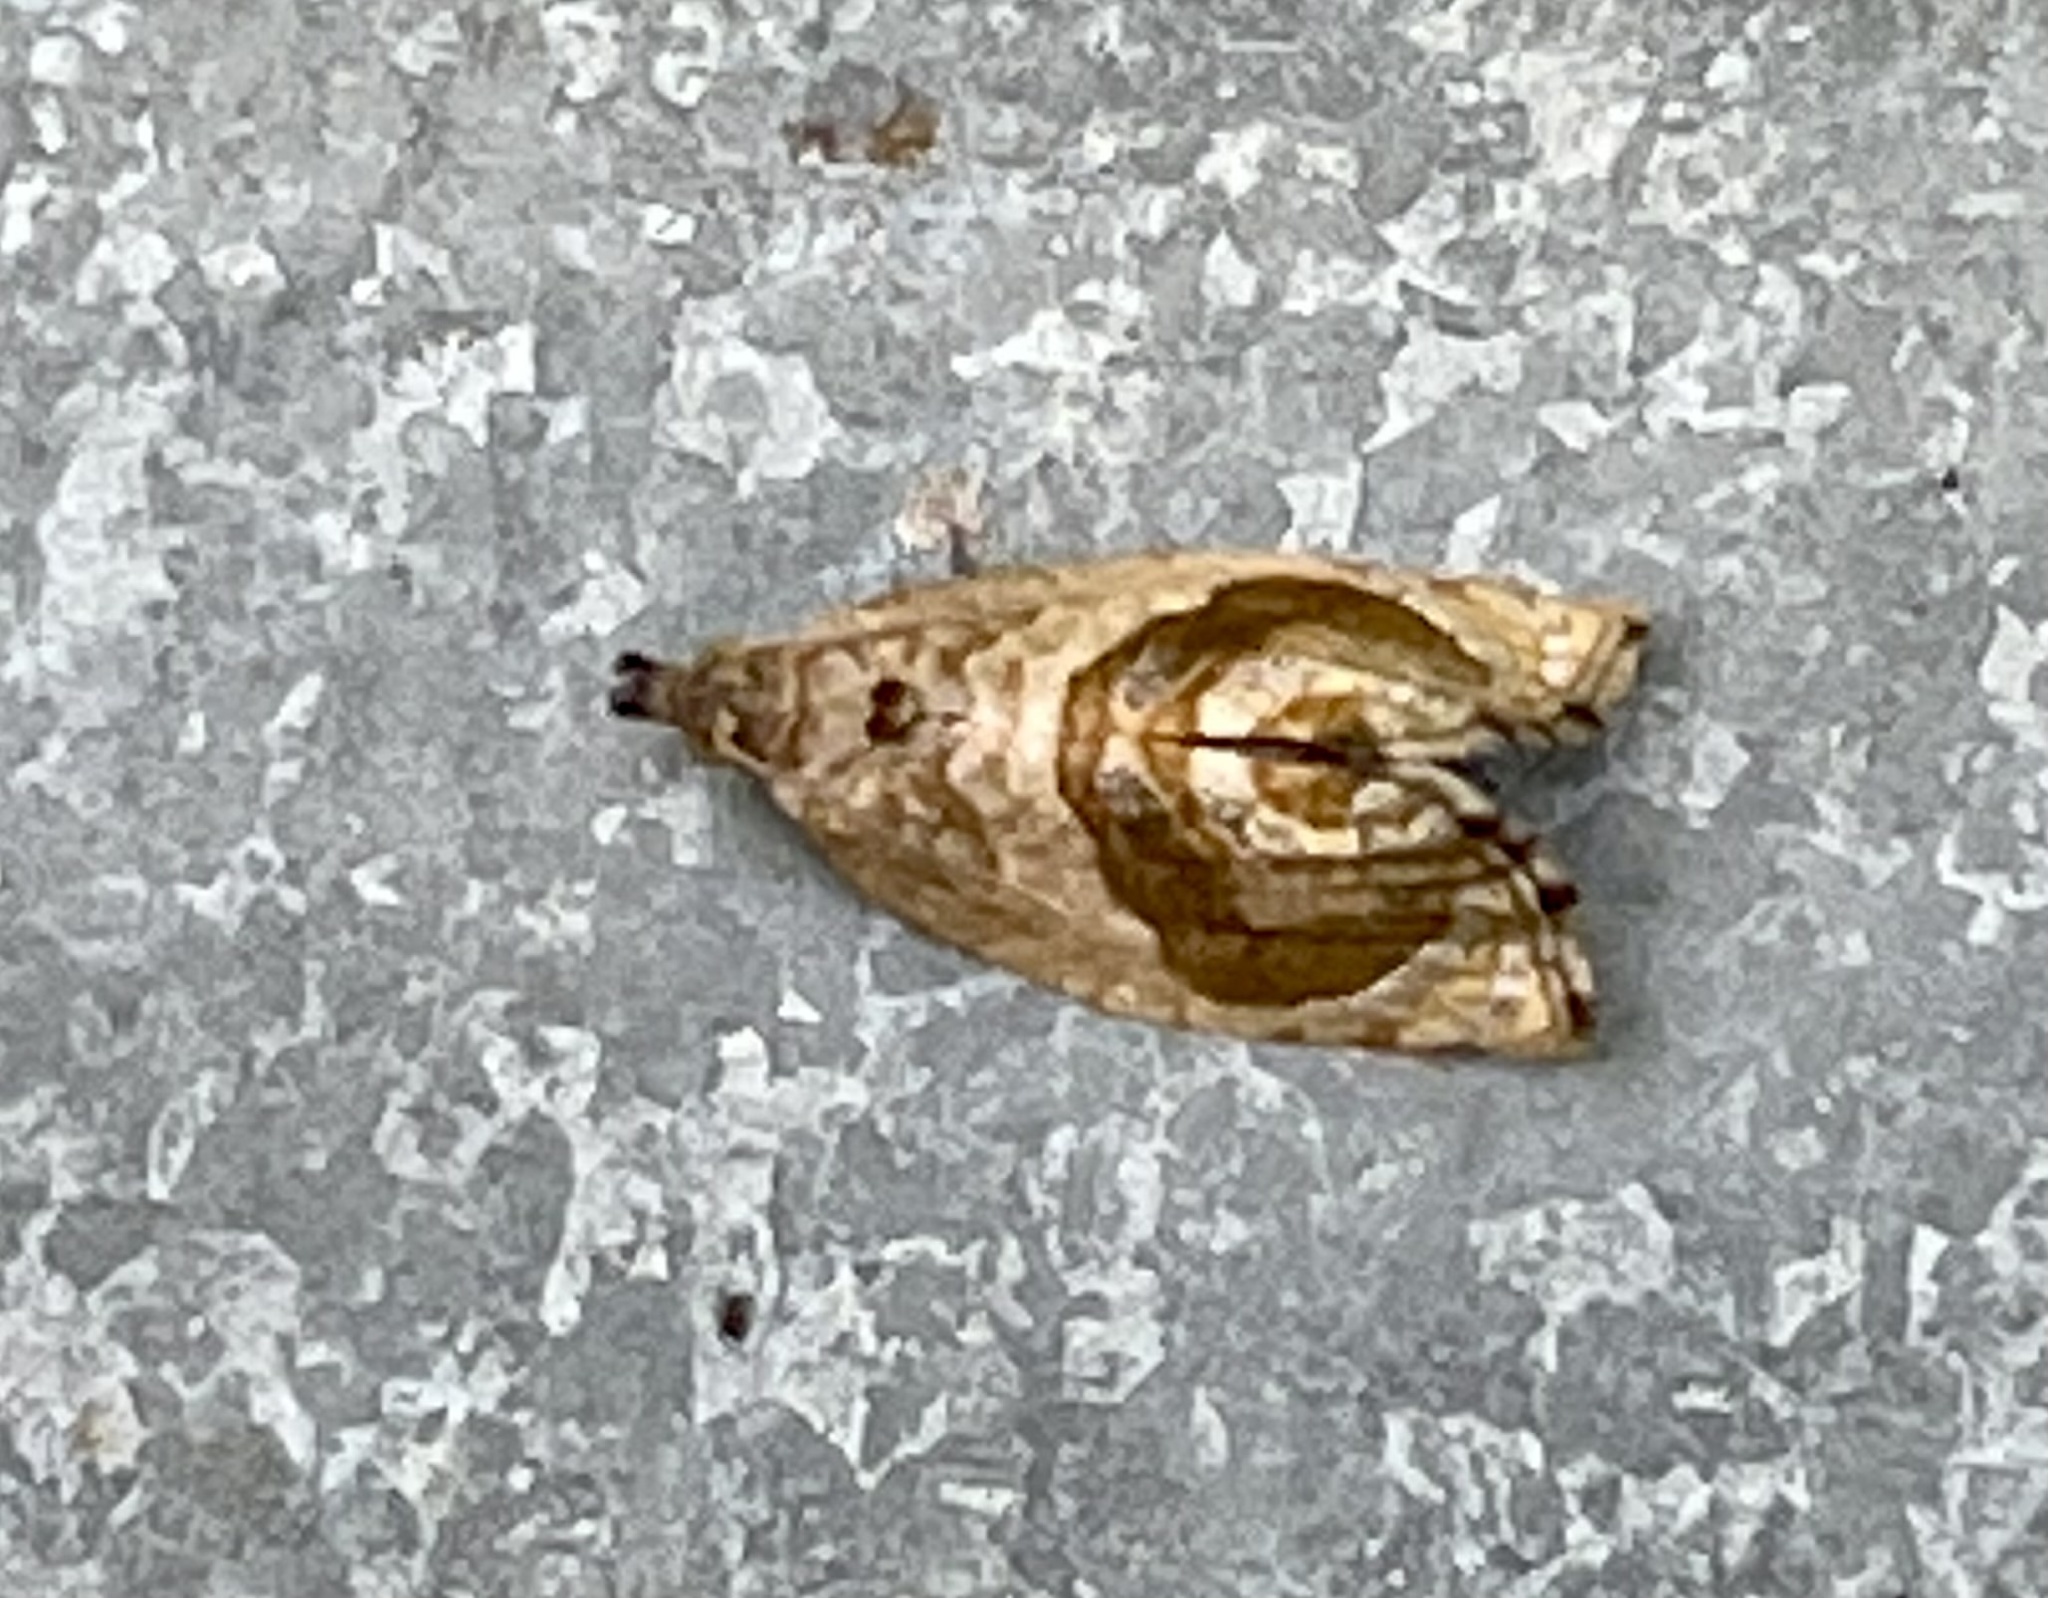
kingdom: Animalia
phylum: Arthropoda
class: Insecta
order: Lepidoptera
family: Tortricidae
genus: Acroceuthes
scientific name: Acroceuthes metaxanthana
